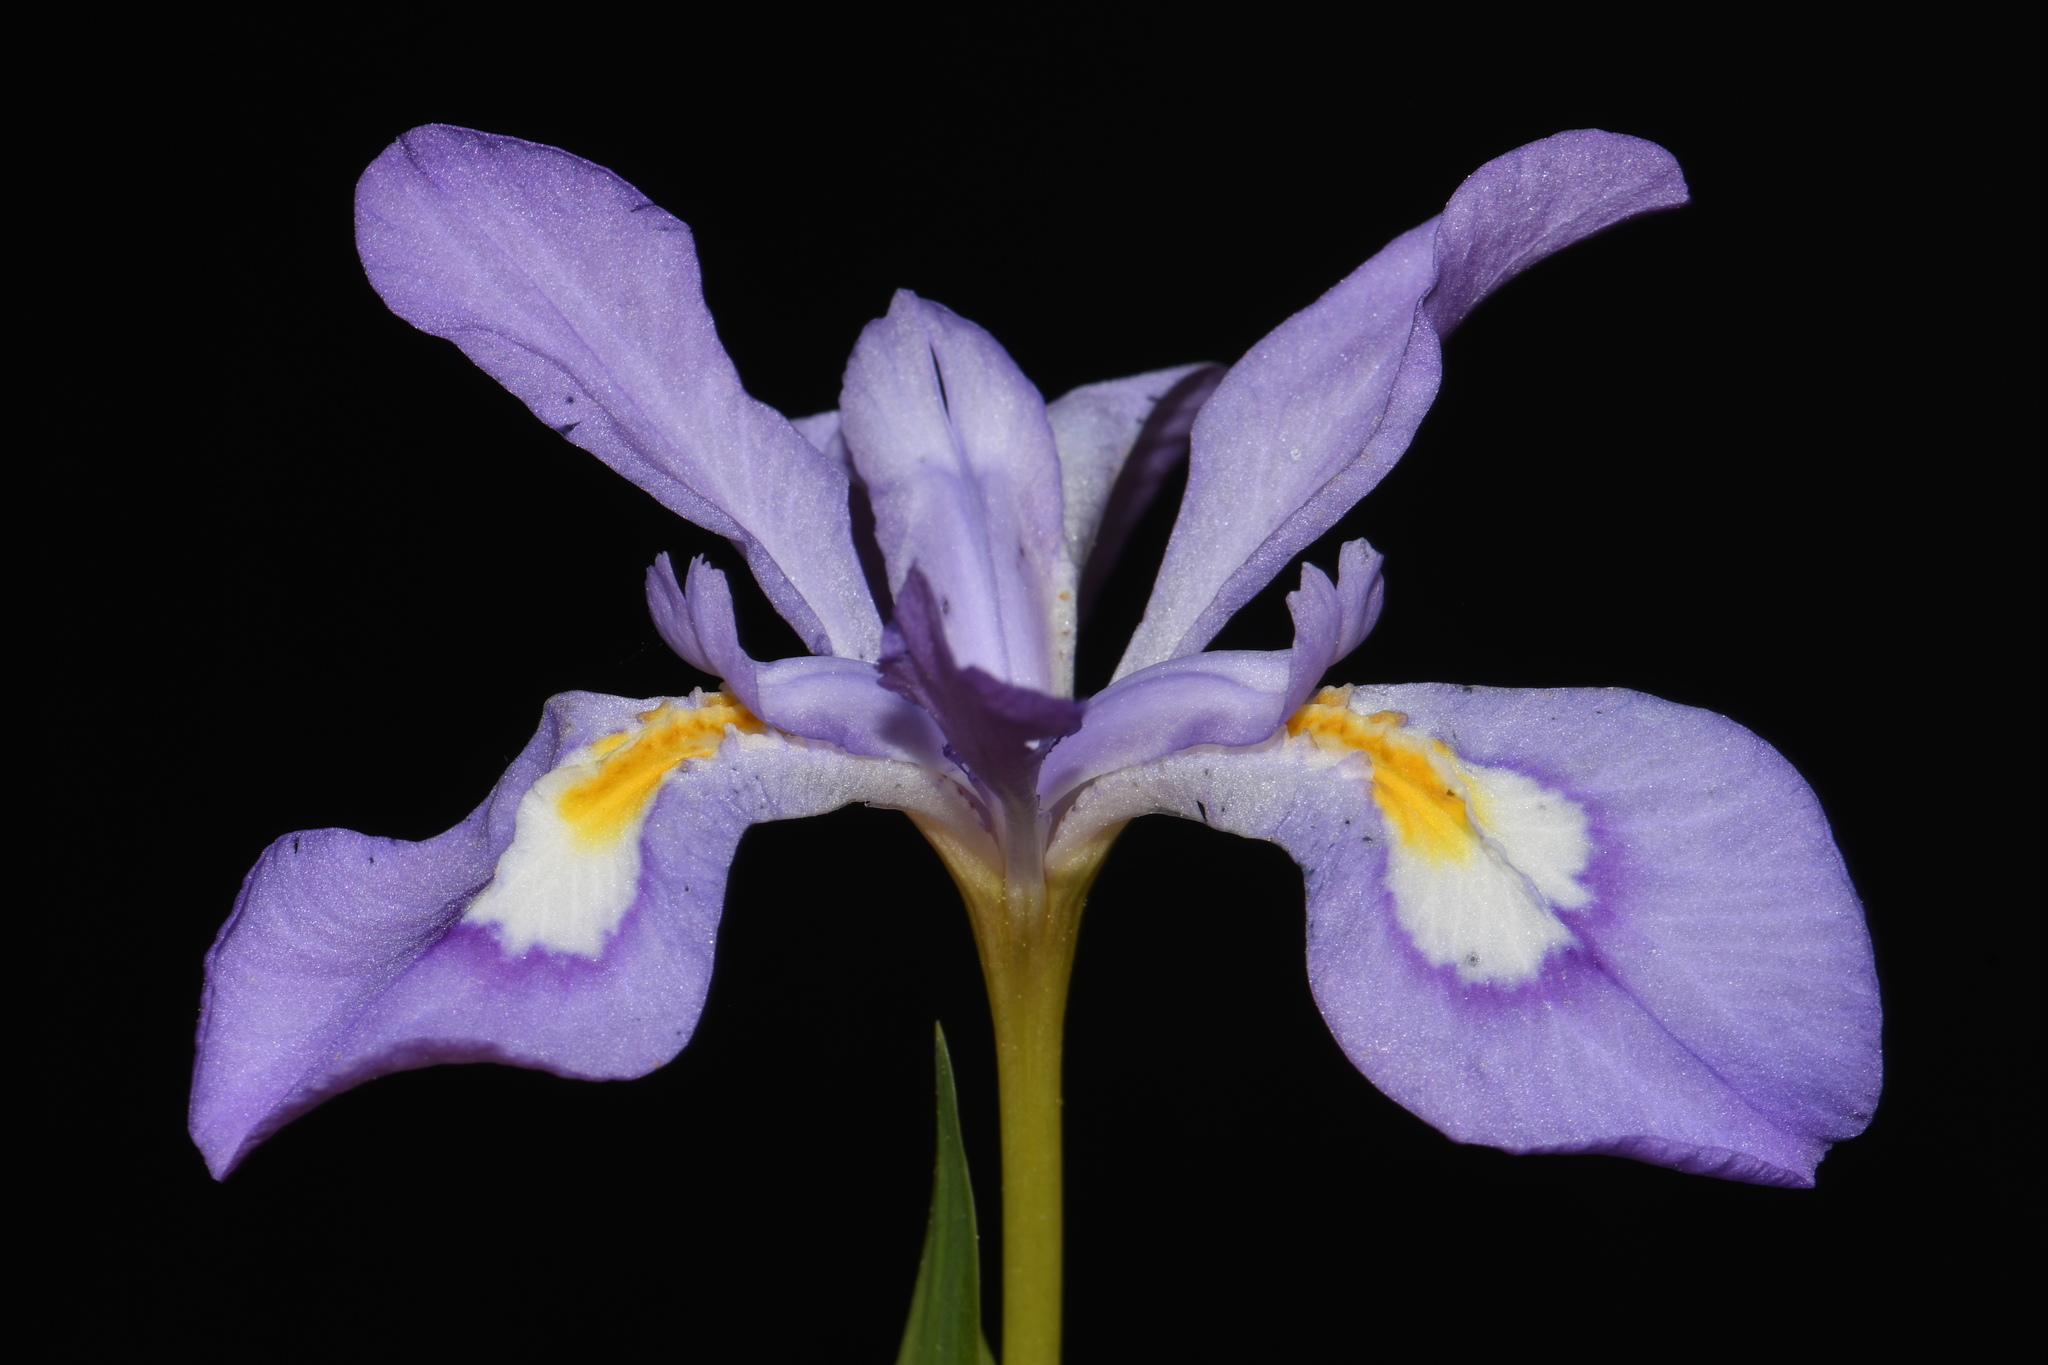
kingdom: Plantae
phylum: Tracheophyta
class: Liliopsida
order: Asparagales
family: Iridaceae
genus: Iris
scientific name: Iris cristata
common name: Crested iris
